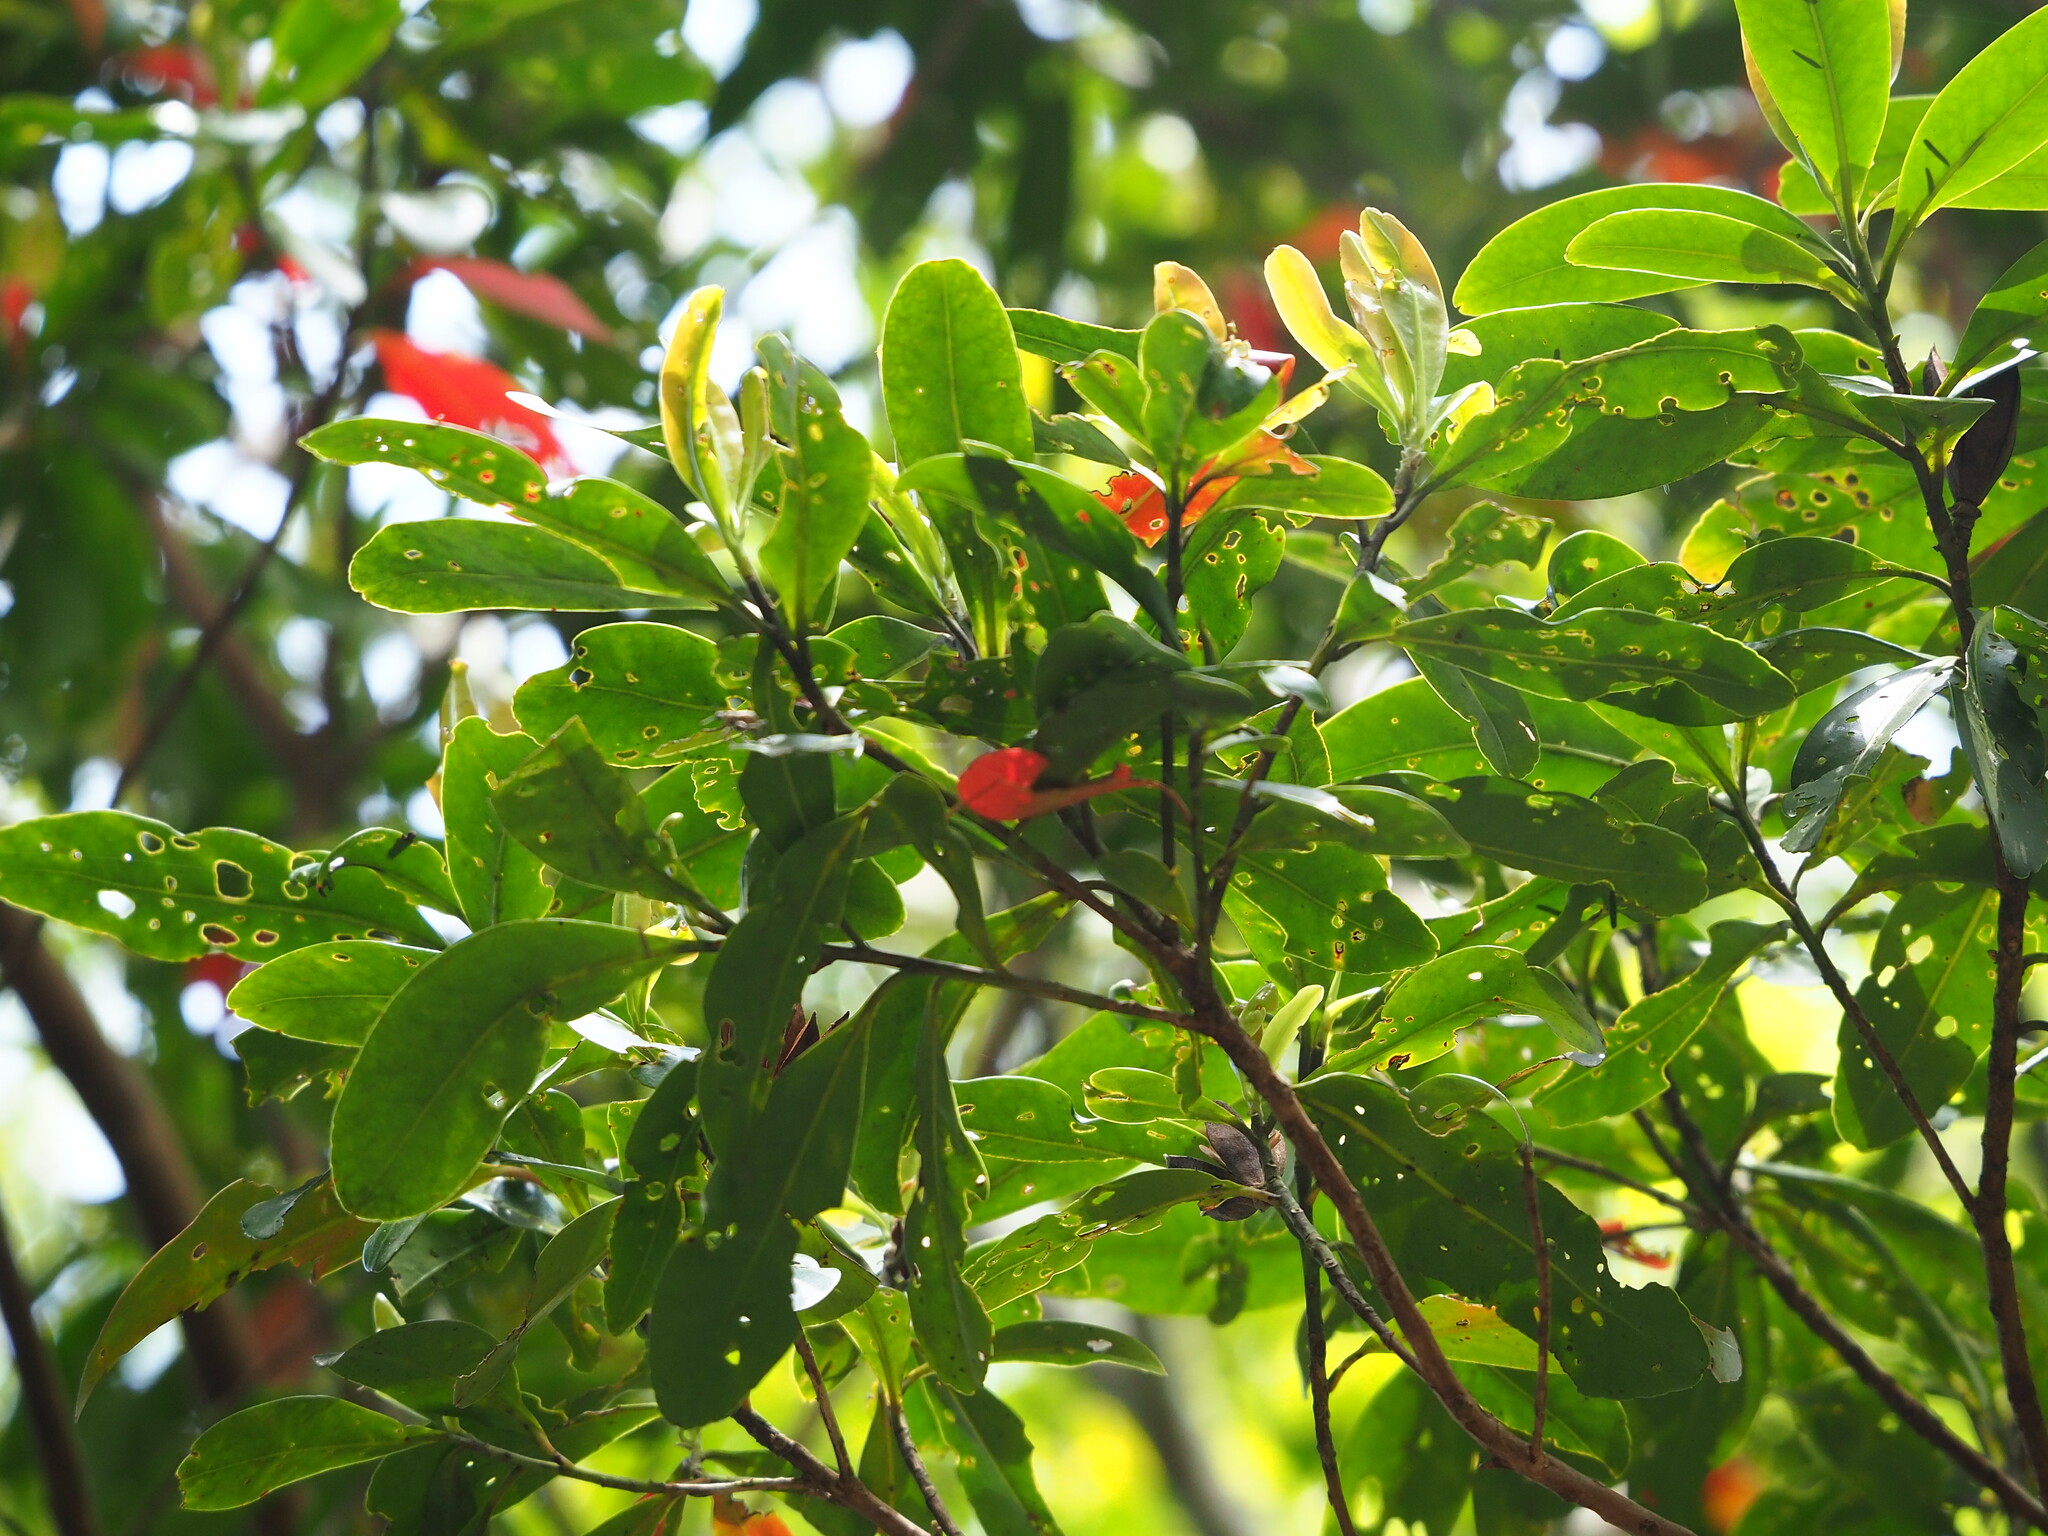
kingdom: Plantae
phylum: Tracheophyta
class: Magnoliopsida
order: Ericales
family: Theaceae
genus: Polyspora
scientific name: Polyspora axillaris
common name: Fried egg tree
